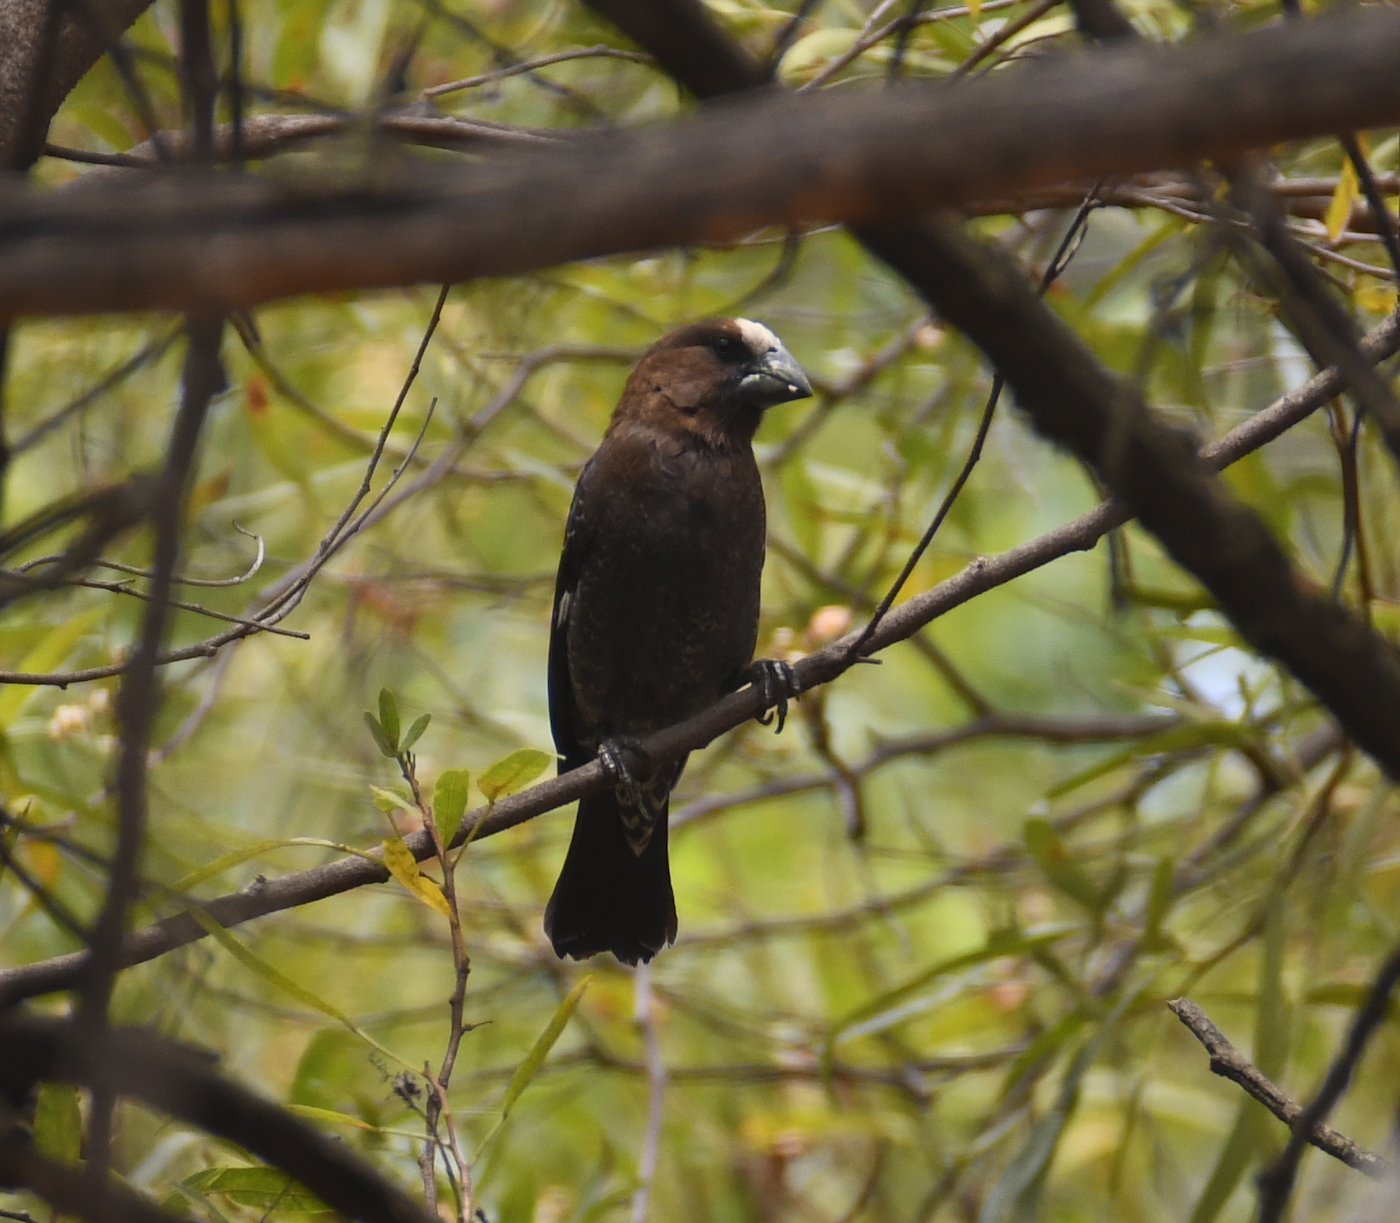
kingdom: Animalia
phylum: Chordata
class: Aves
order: Passeriformes
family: Ploceidae
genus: Amblyospiza
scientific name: Amblyospiza albifrons
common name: Thick-billed weaver
